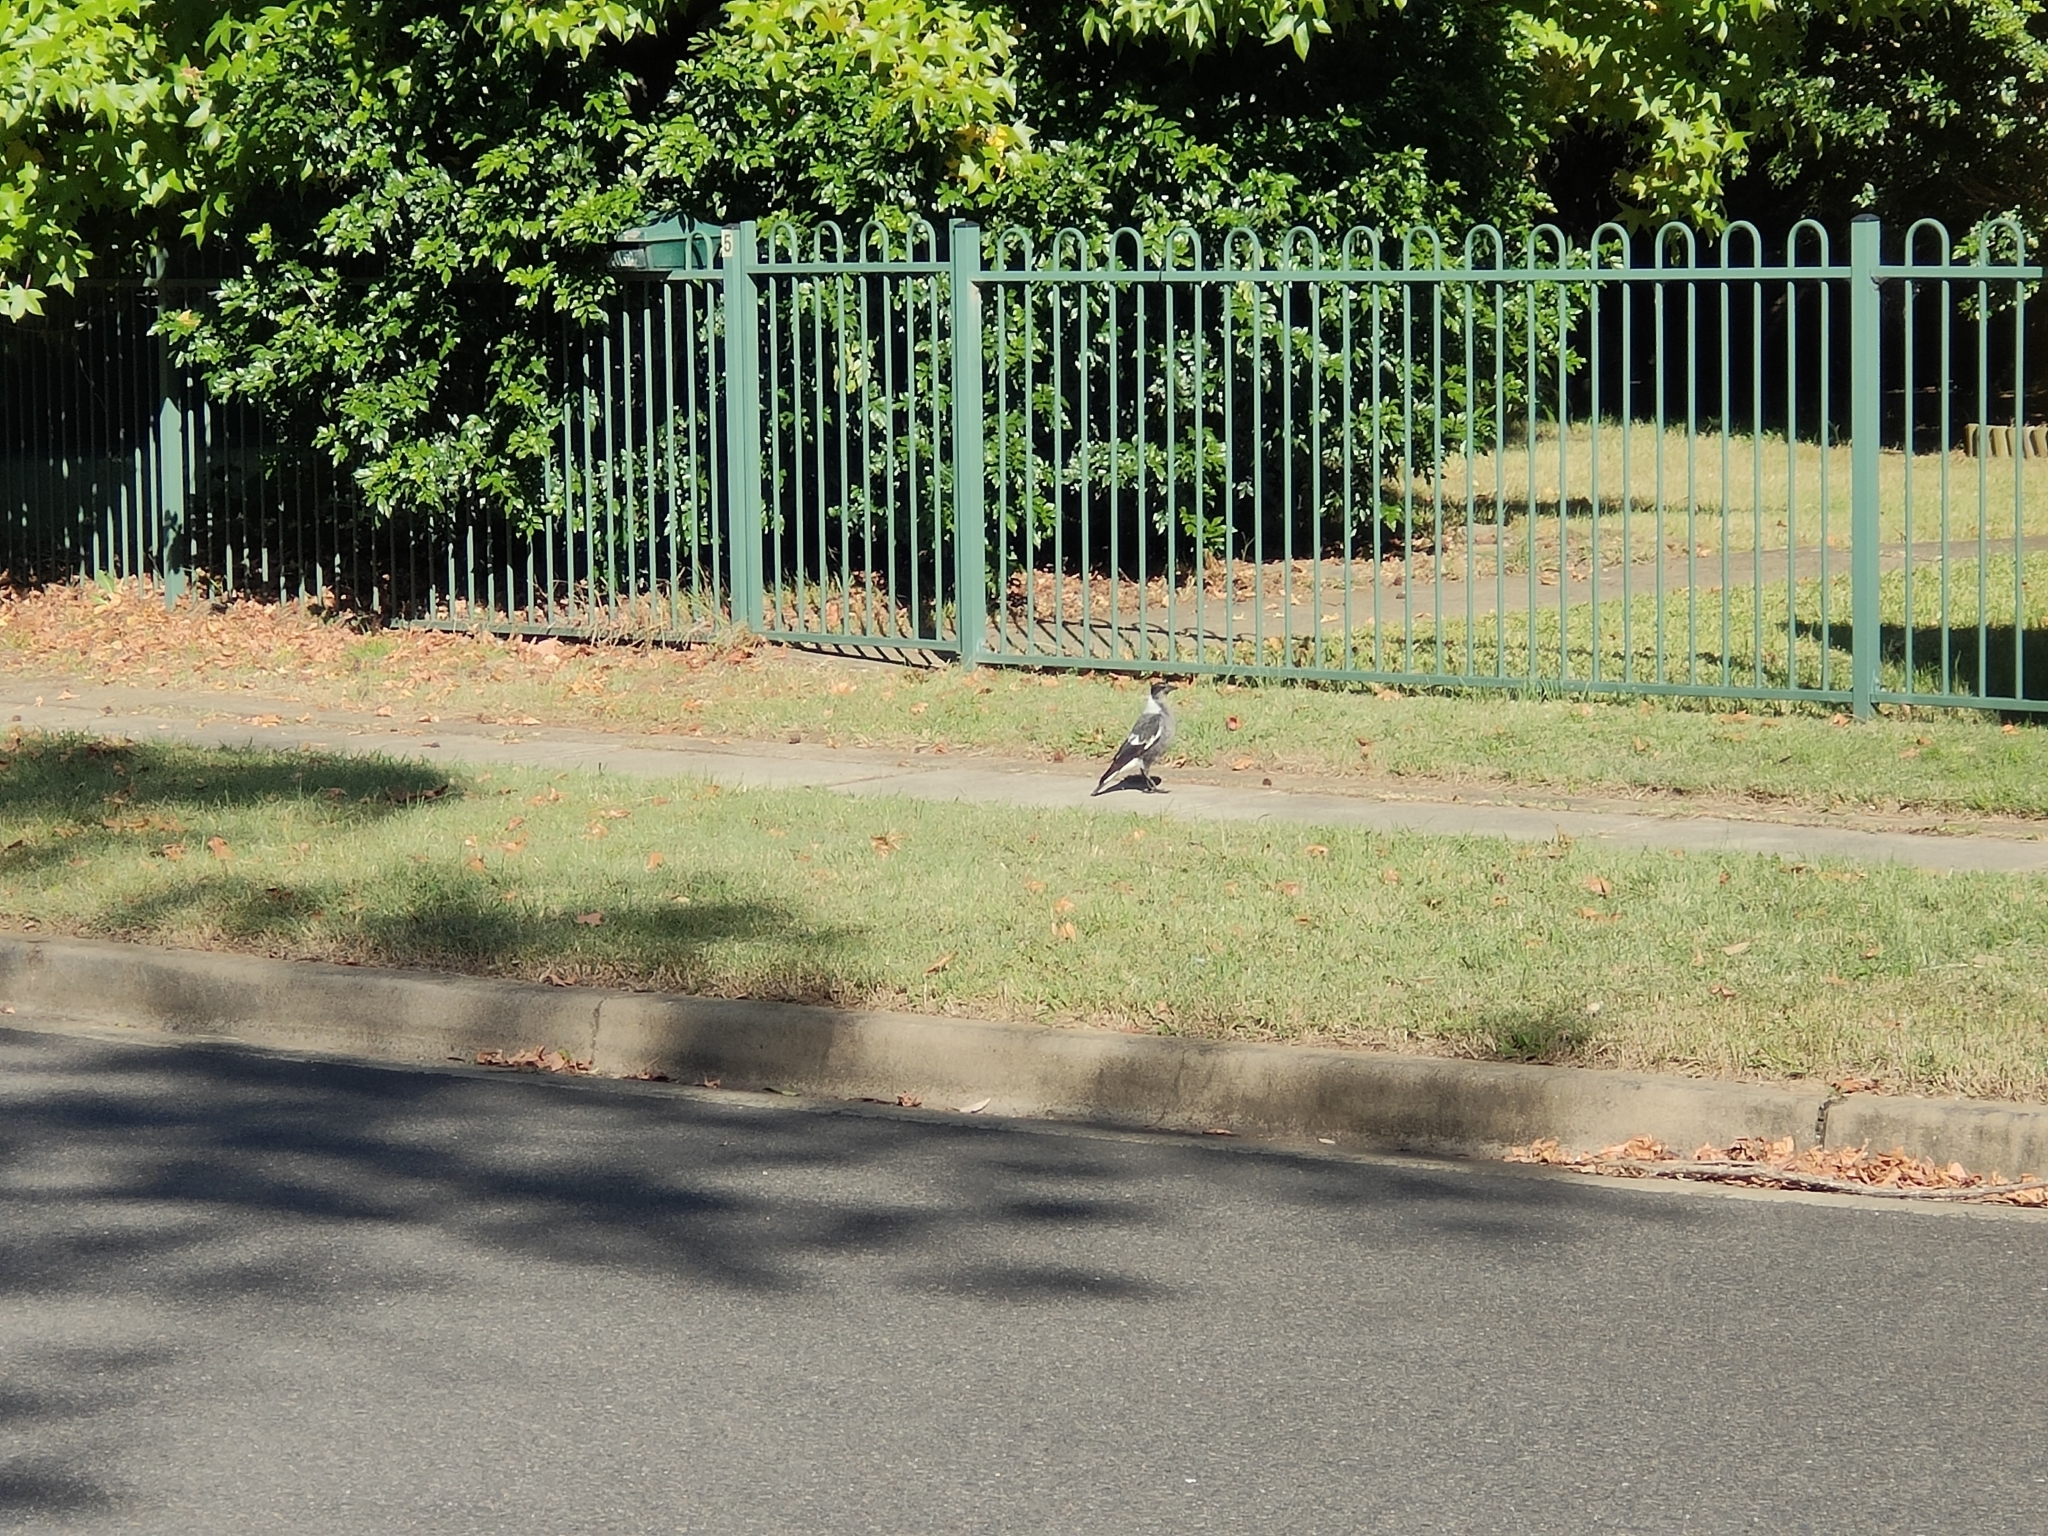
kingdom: Animalia
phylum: Chordata
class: Aves
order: Passeriformes
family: Cracticidae
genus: Gymnorhina
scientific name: Gymnorhina tibicen
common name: Australian magpie
